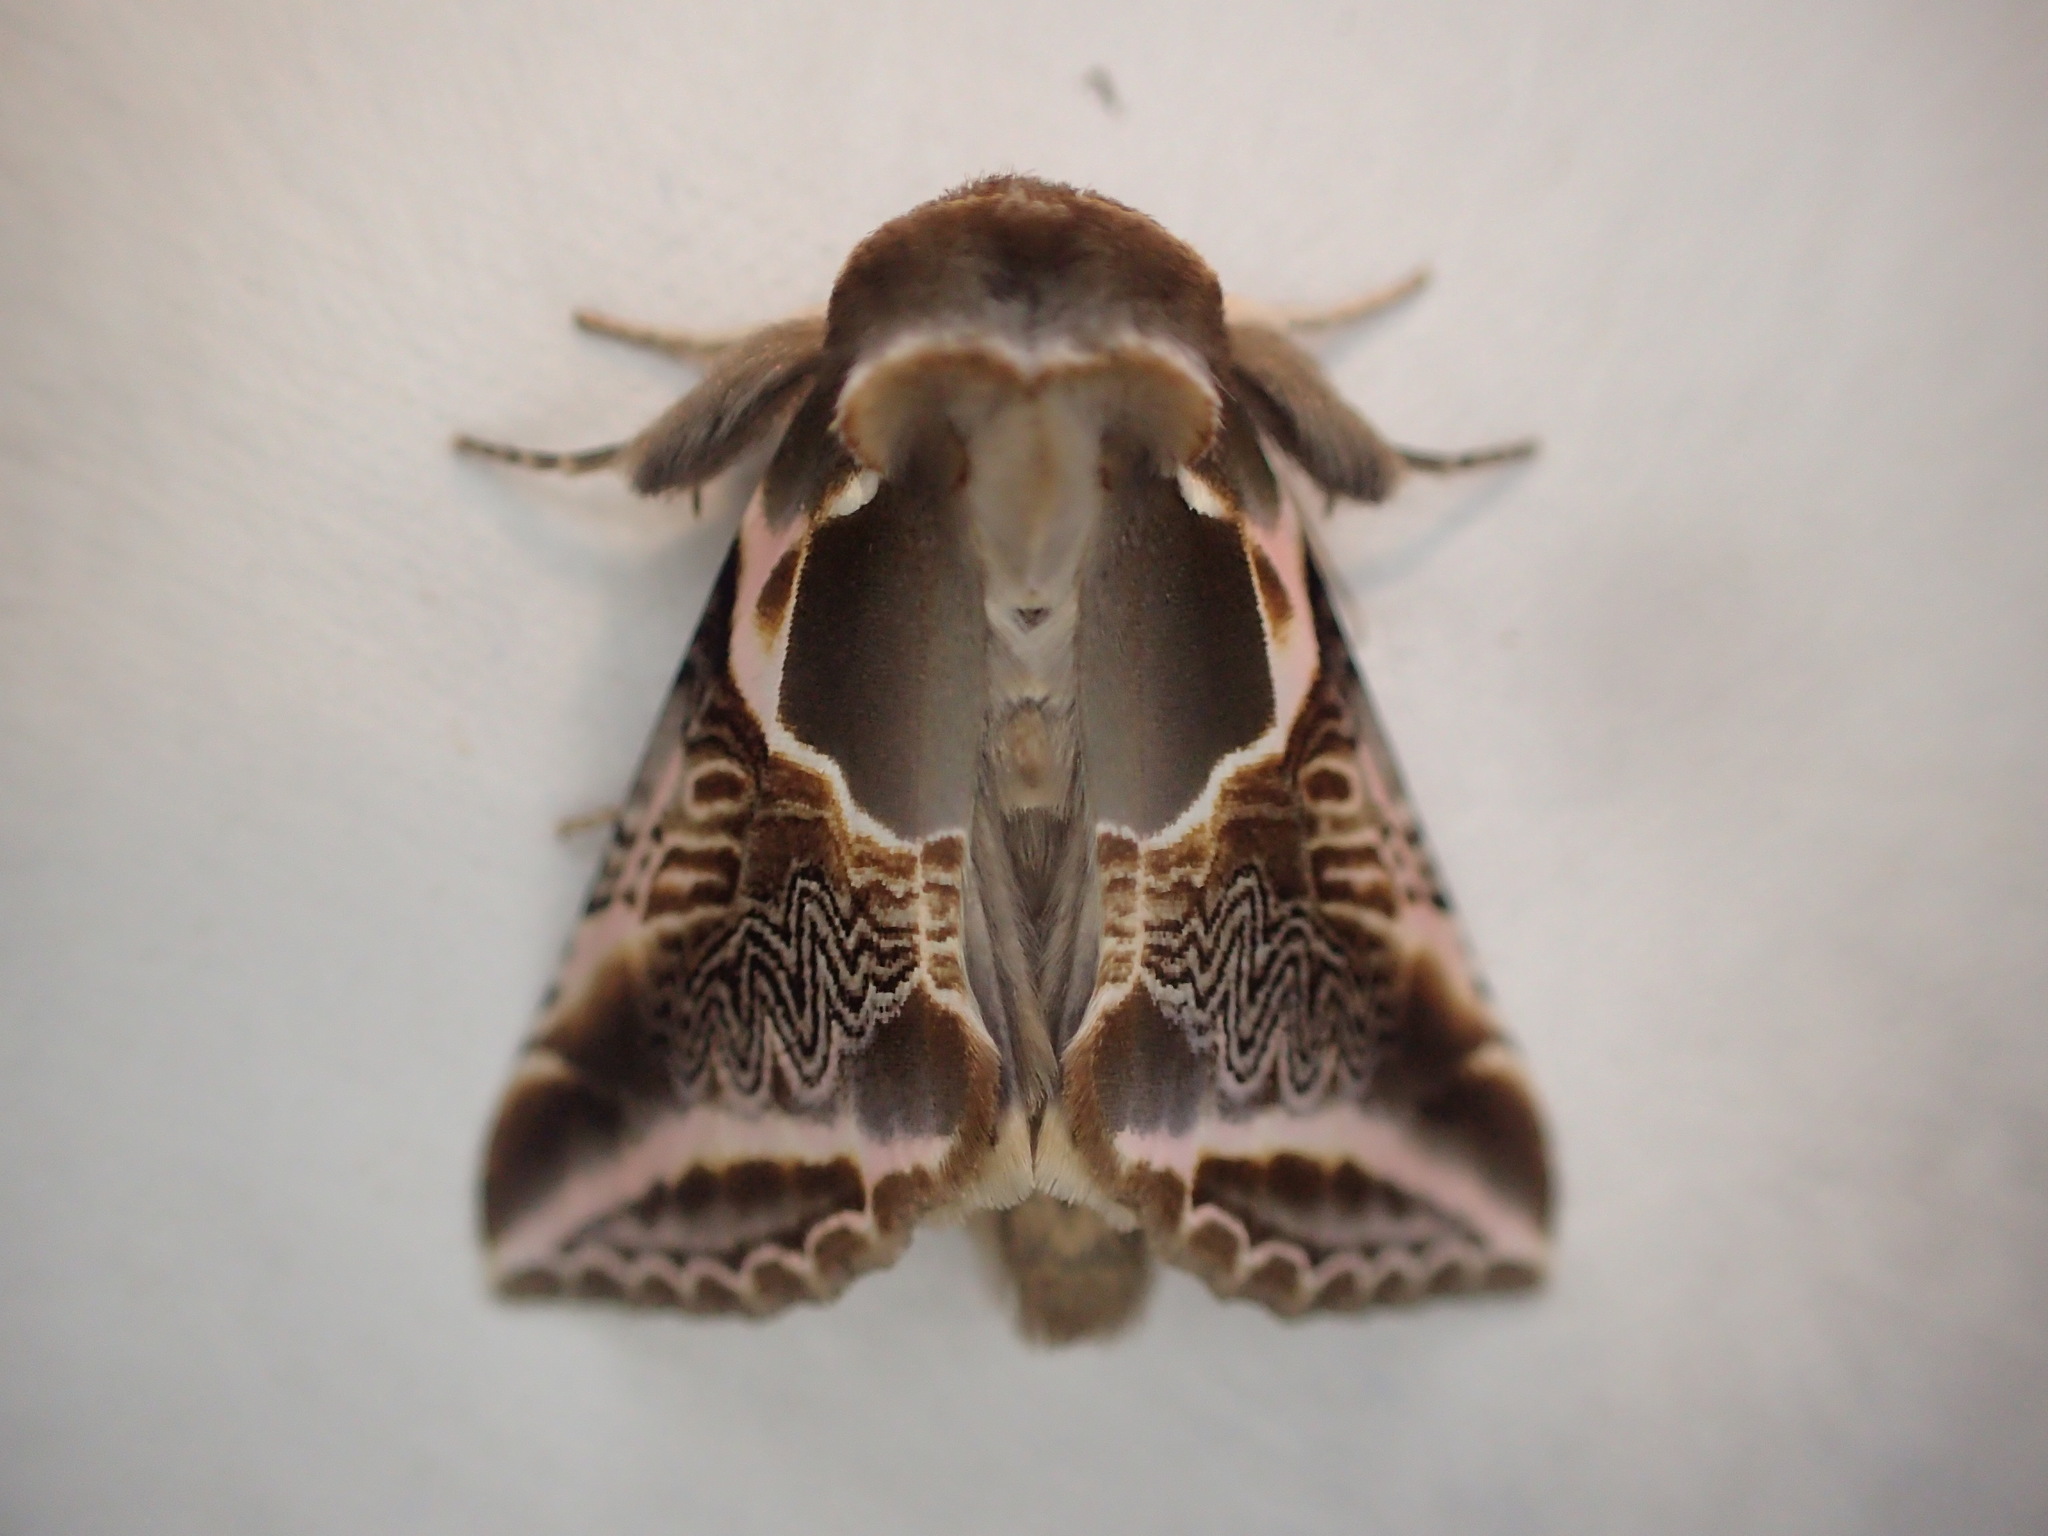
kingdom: Animalia
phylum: Arthropoda
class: Insecta
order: Lepidoptera
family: Drepanidae
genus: Habrosyne
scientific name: Habrosyne scripta
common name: Lettered habrosyne moth
